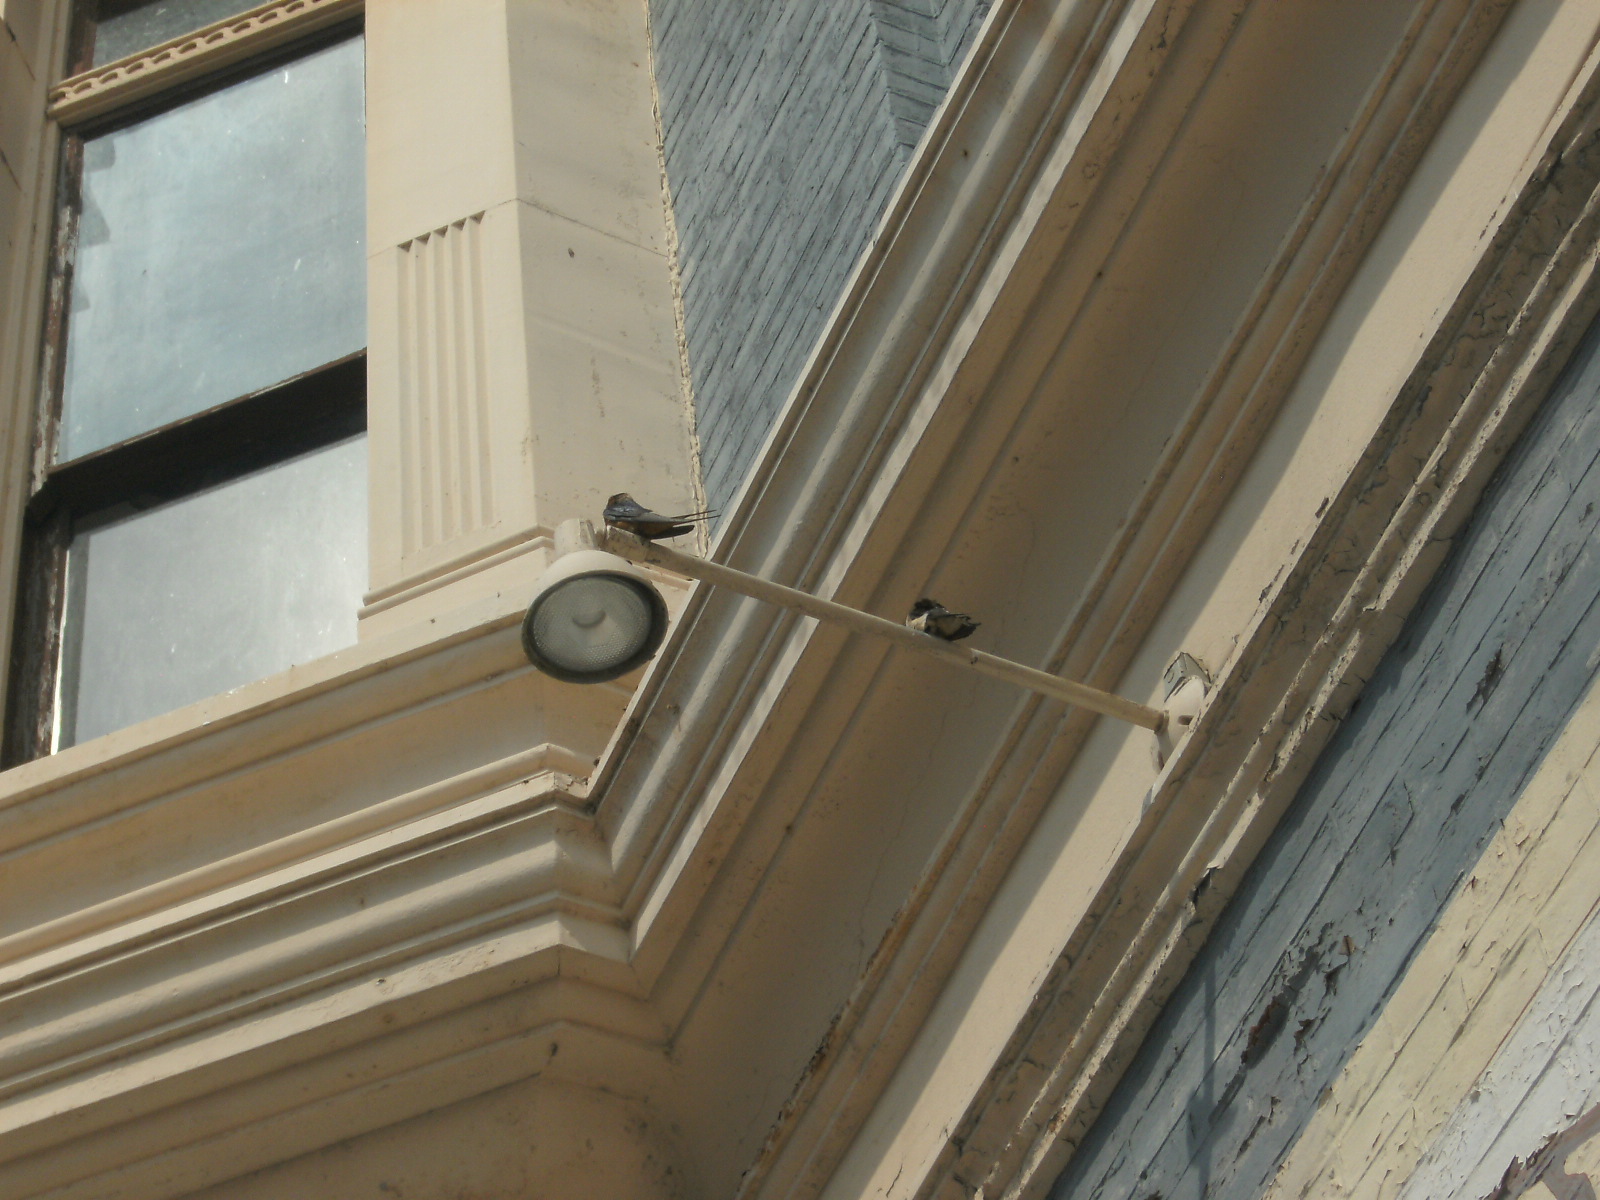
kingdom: Animalia
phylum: Chordata
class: Aves
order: Passeriformes
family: Hirundinidae
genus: Hirundo
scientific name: Hirundo rustica
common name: Barn swallow
